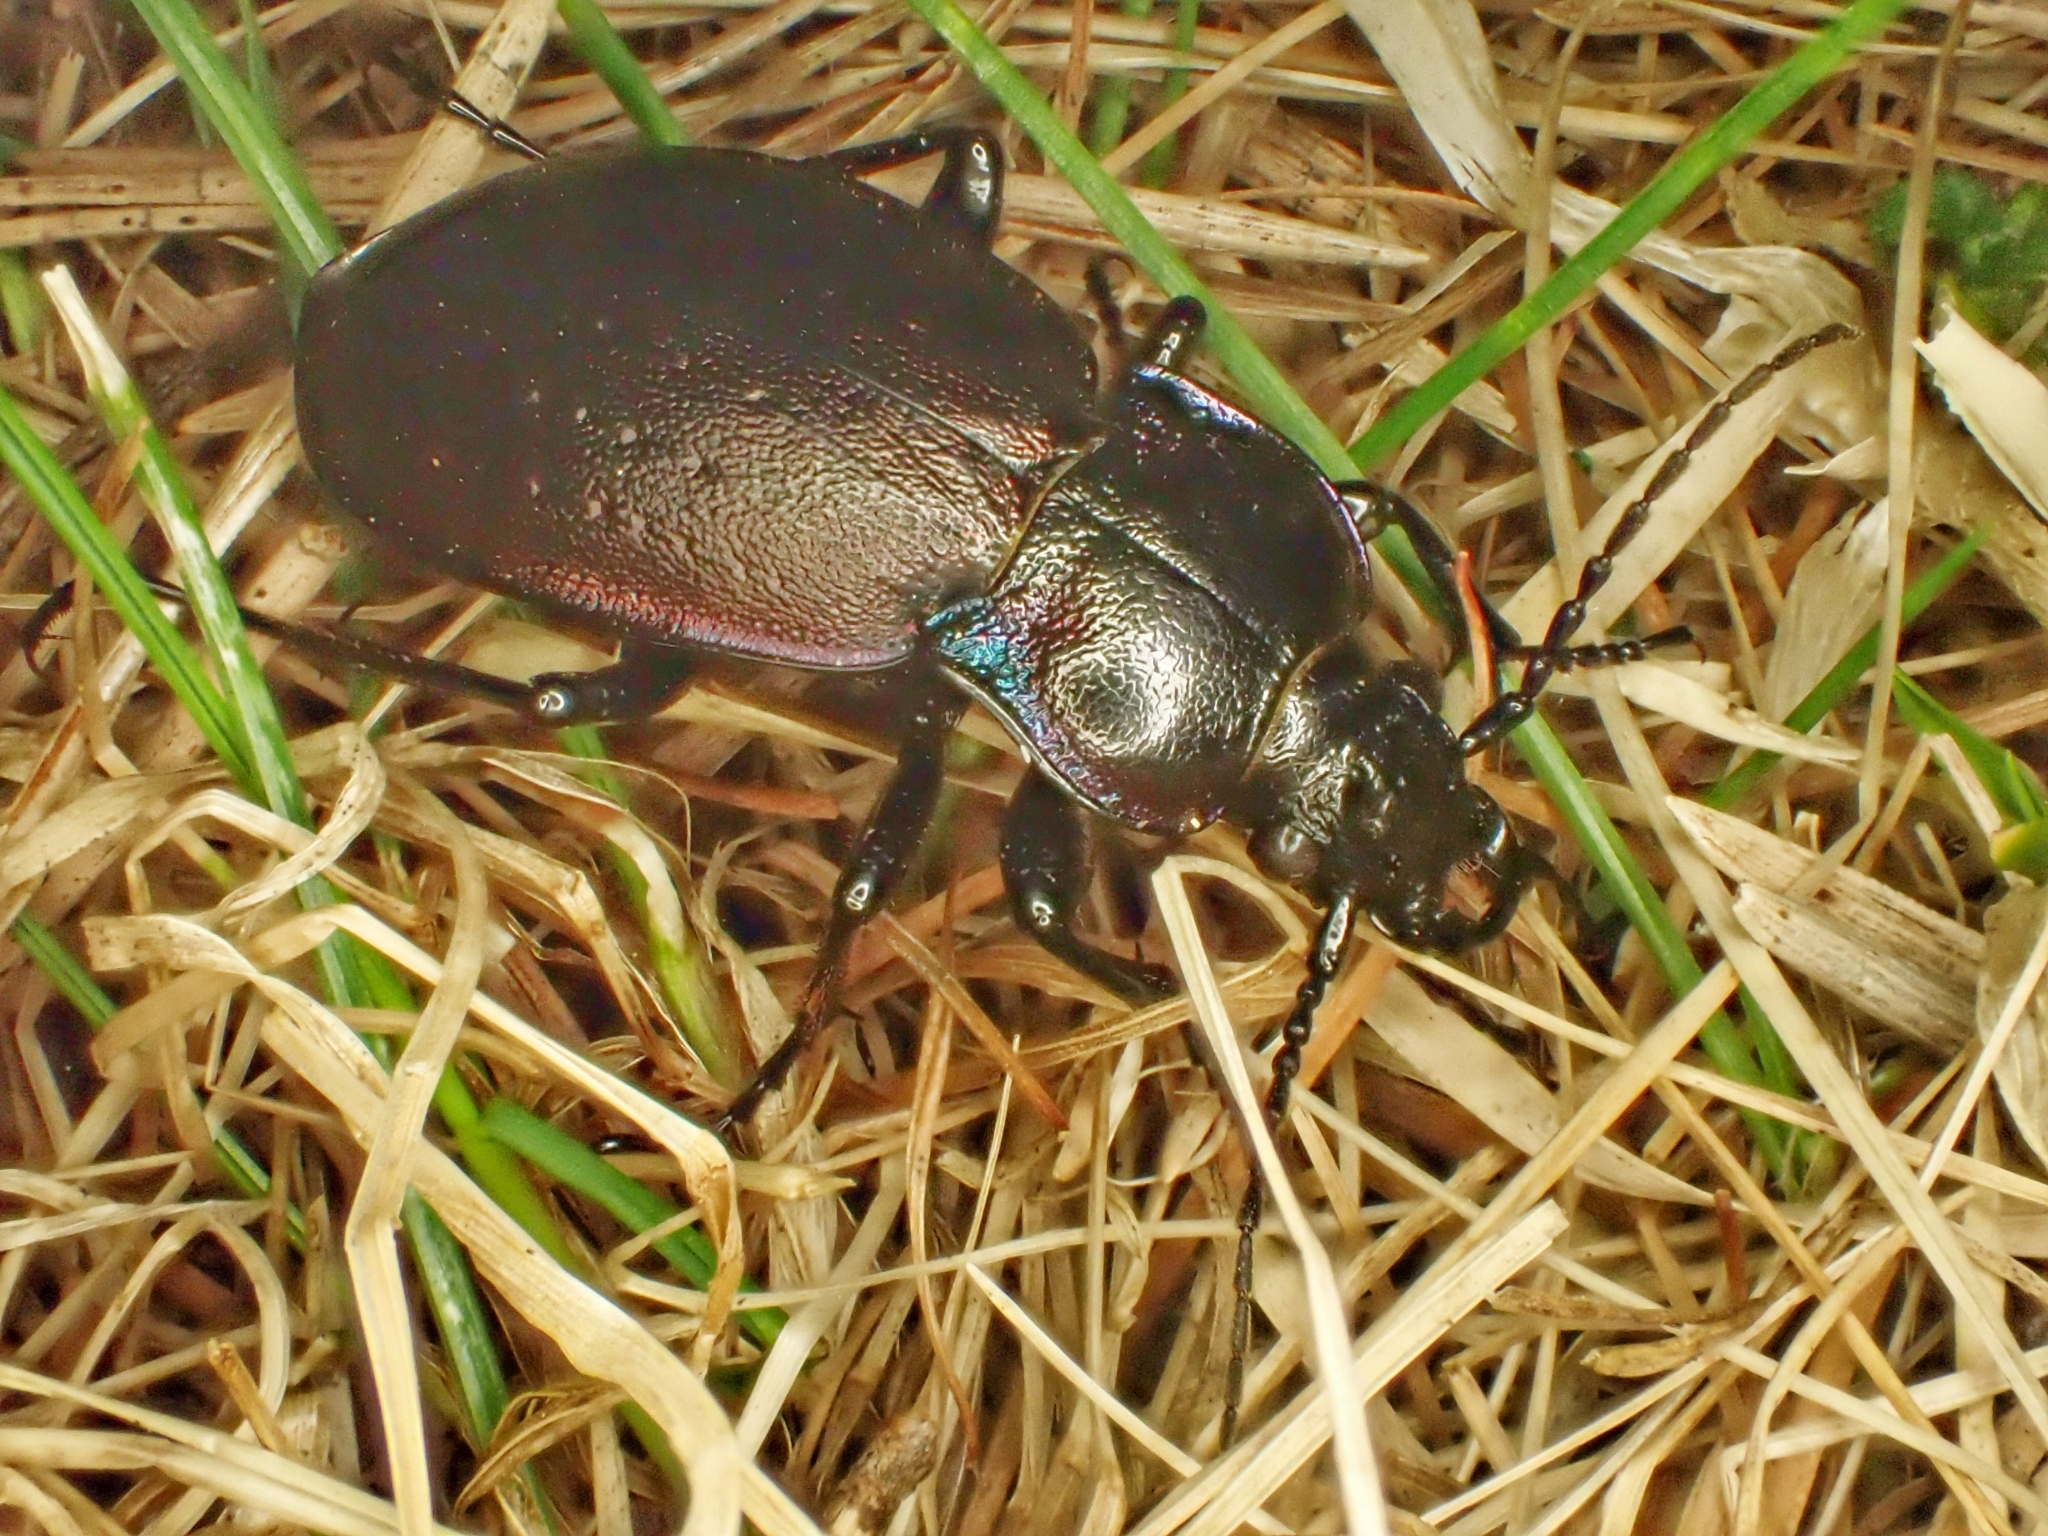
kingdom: Animalia
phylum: Arthropoda
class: Insecta
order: Coleoptera
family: Carabidae
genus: Carabus
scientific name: Carabus nemoralis
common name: European ground beetle
